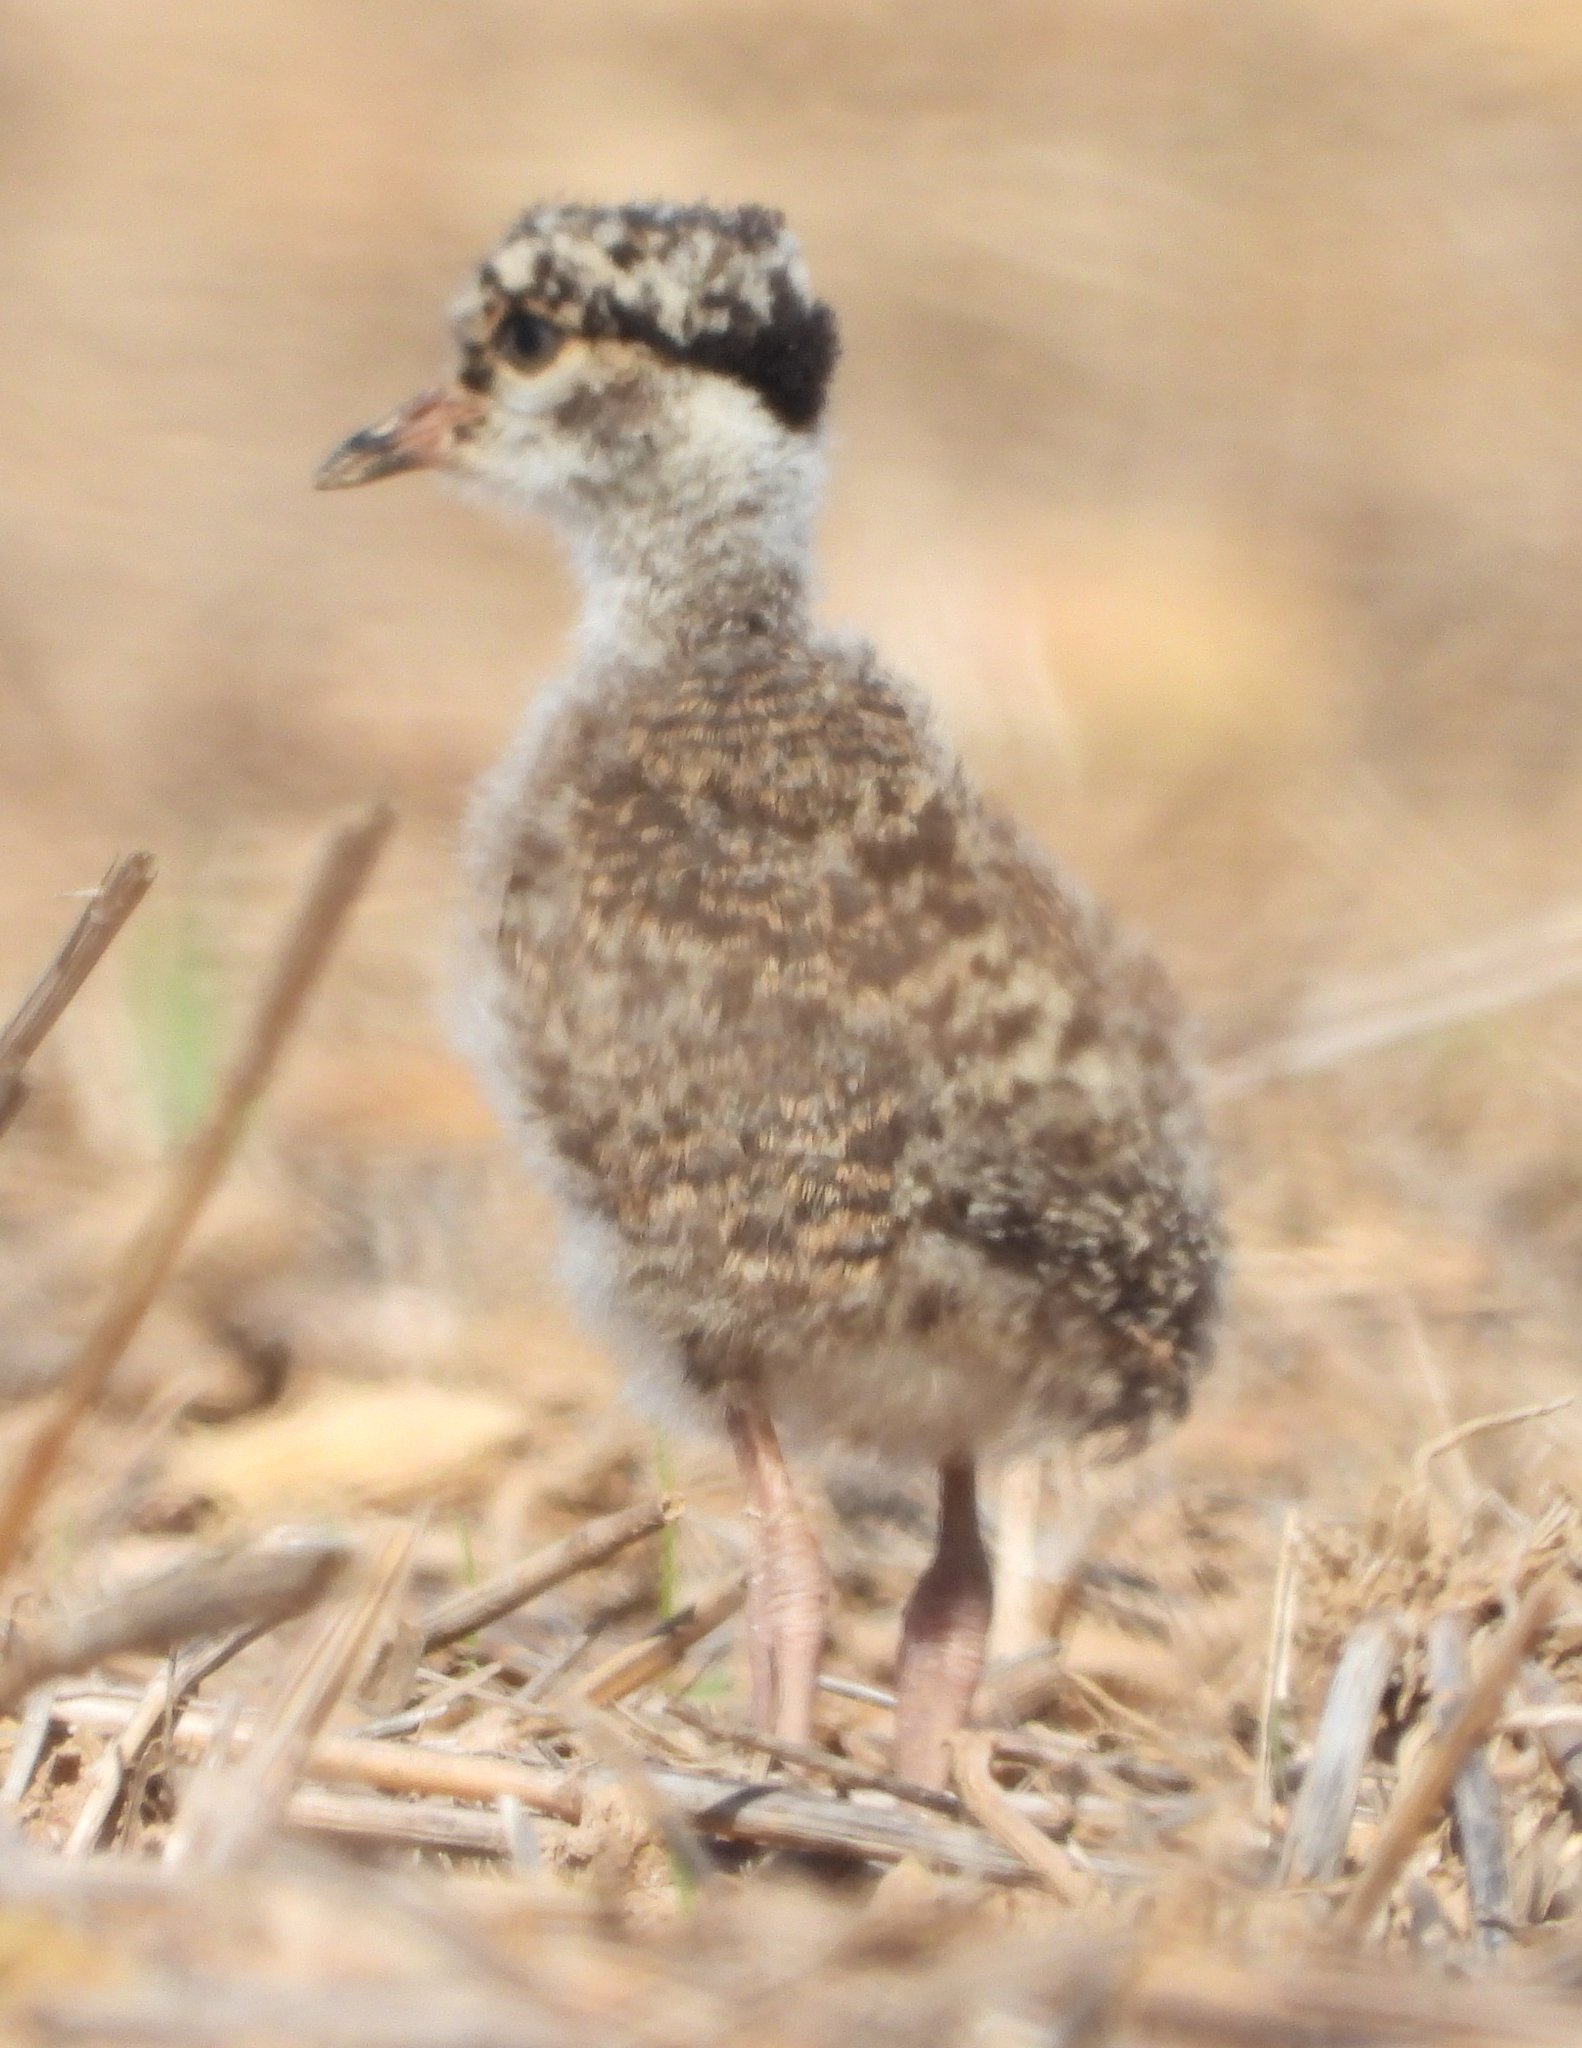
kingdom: Animalia
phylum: Chordata
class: Aves
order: Charadriiformes
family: Charadriidae
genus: Vanellus
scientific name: Vanellus coronatus
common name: Crowned lapwing
